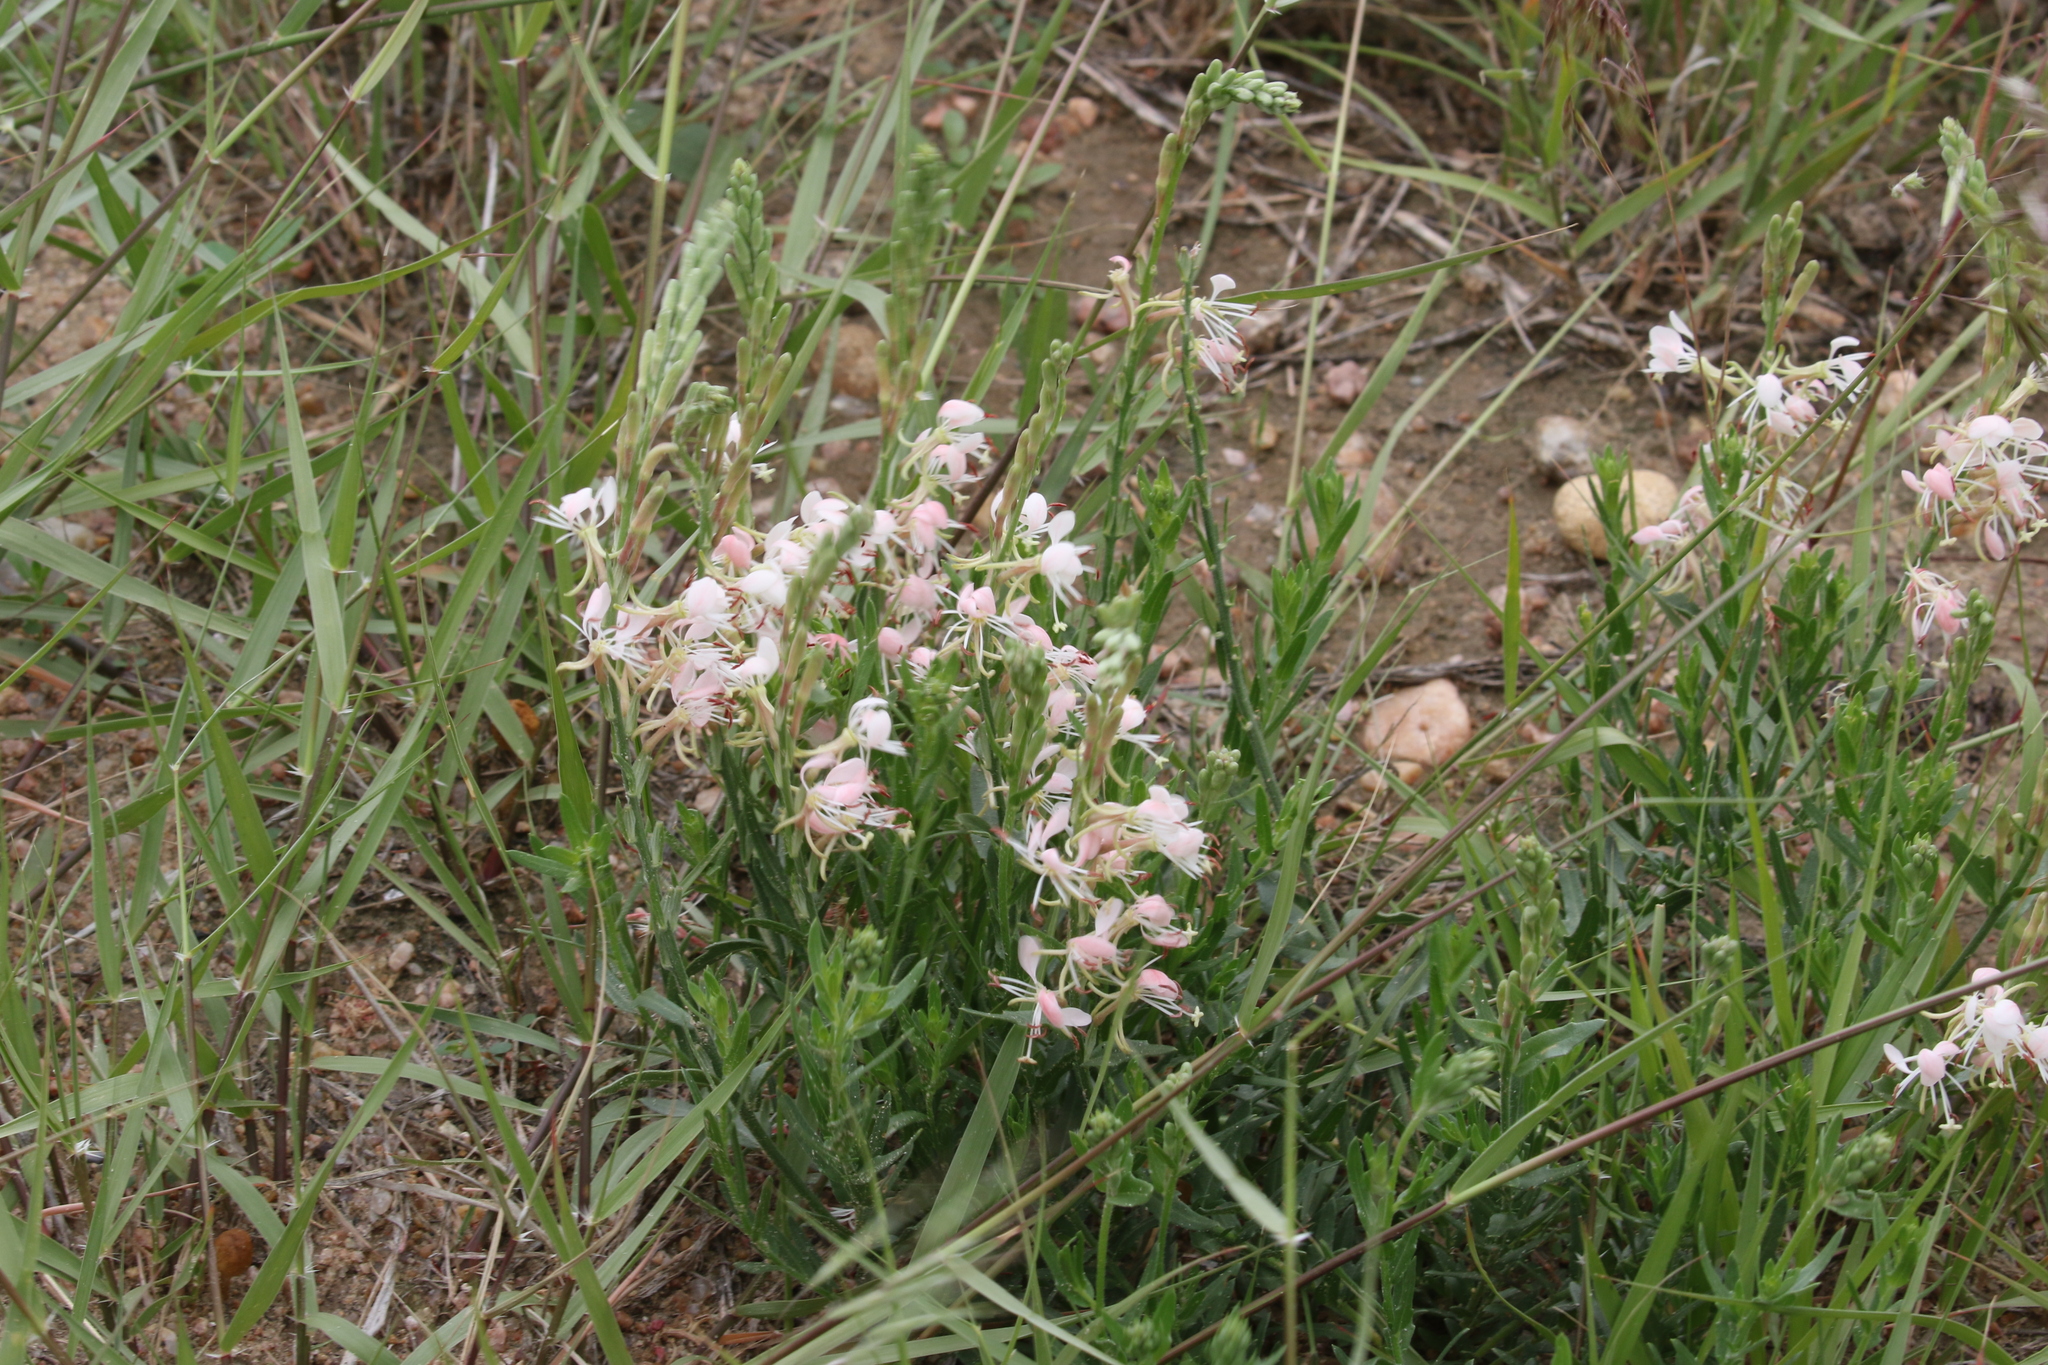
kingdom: Plantae
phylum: Tracheophyta
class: Magnoliopsida
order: Myrtales
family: Onagraceae
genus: Oenothera
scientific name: Oenothera suffrutescens
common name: Scarlet beeblossom
